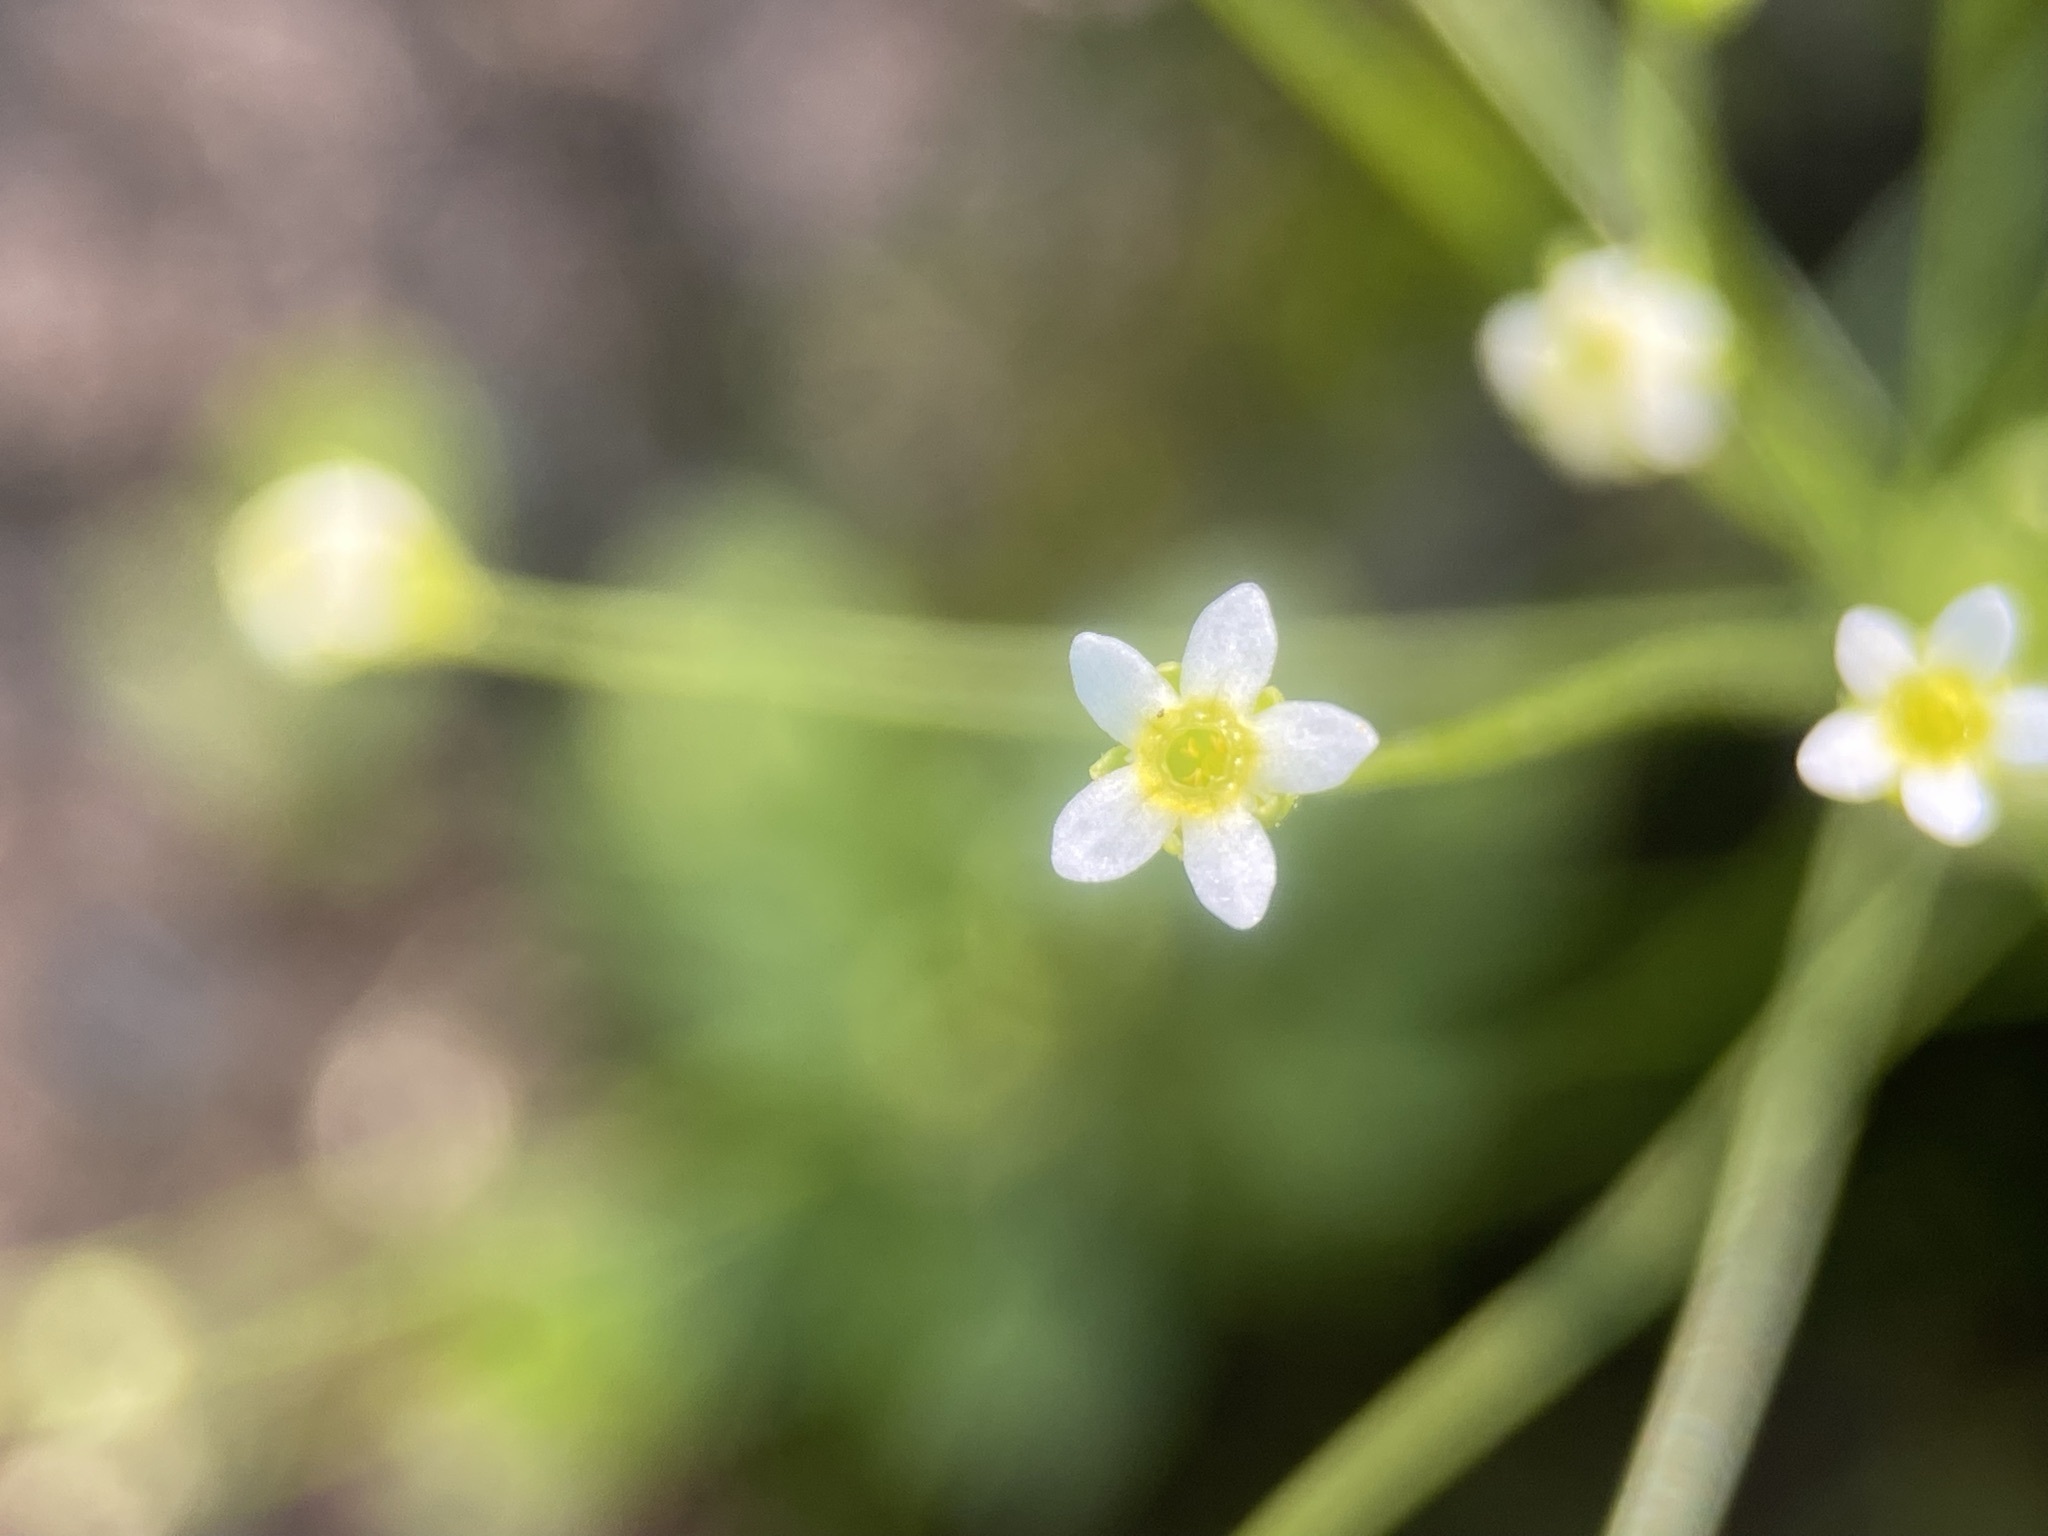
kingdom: Plantae
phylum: Tracheophyta
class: Magnoliopsida
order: Ericales
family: Primulaceae
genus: Androsace
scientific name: Androsace filiformis
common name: Filiform rock jasmine
